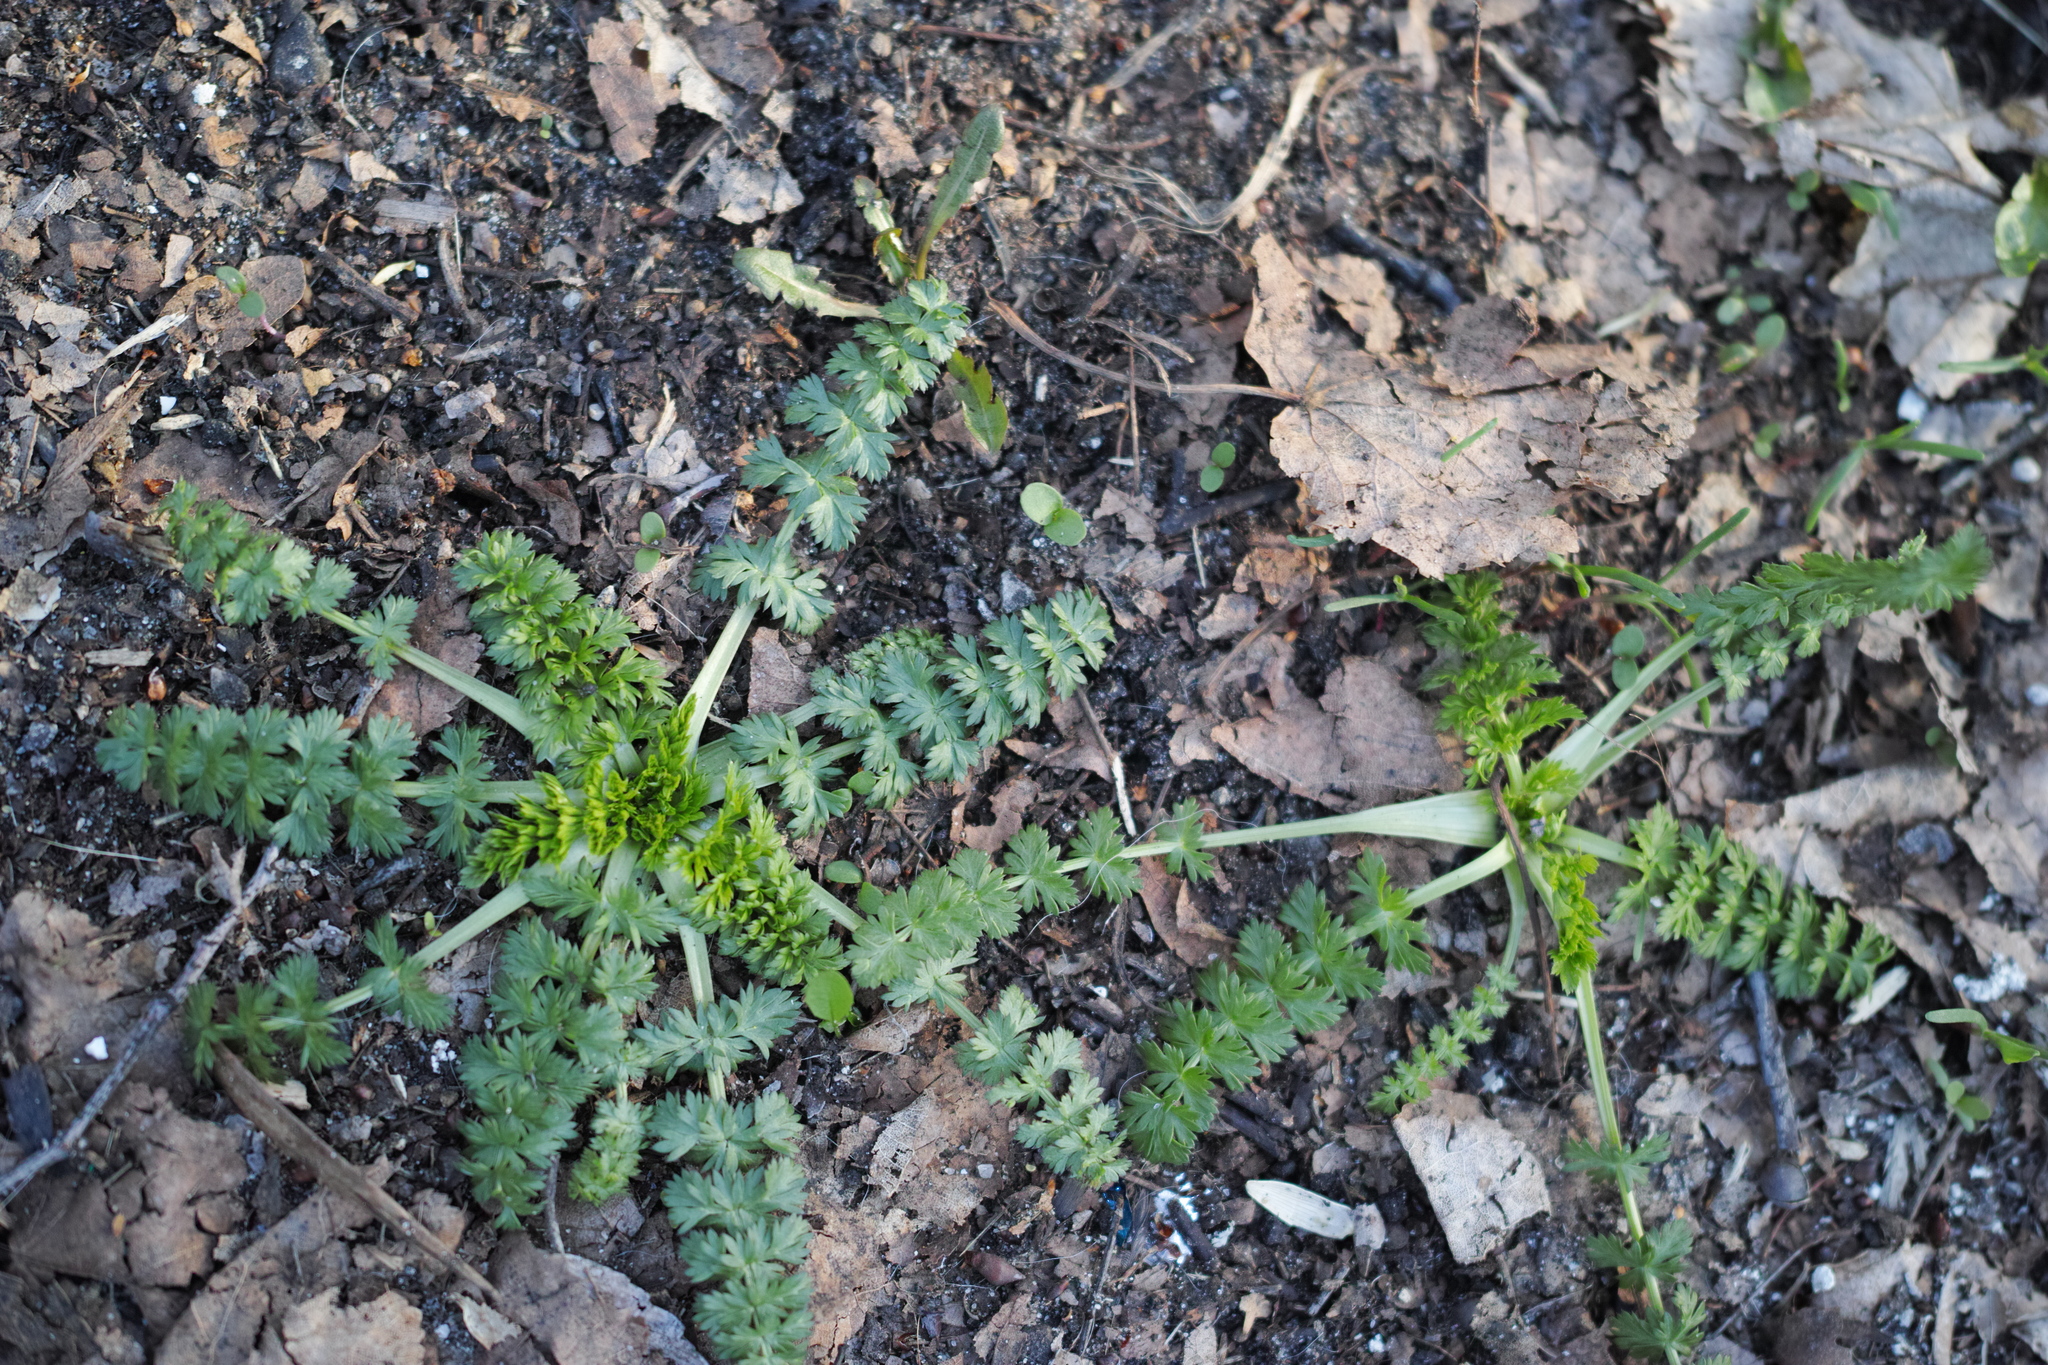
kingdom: Plantae
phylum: Tracheophyta
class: Magnoliopsida
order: Apiales
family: Apiaceae
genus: Carum
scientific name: Carum carvi
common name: Caraway
